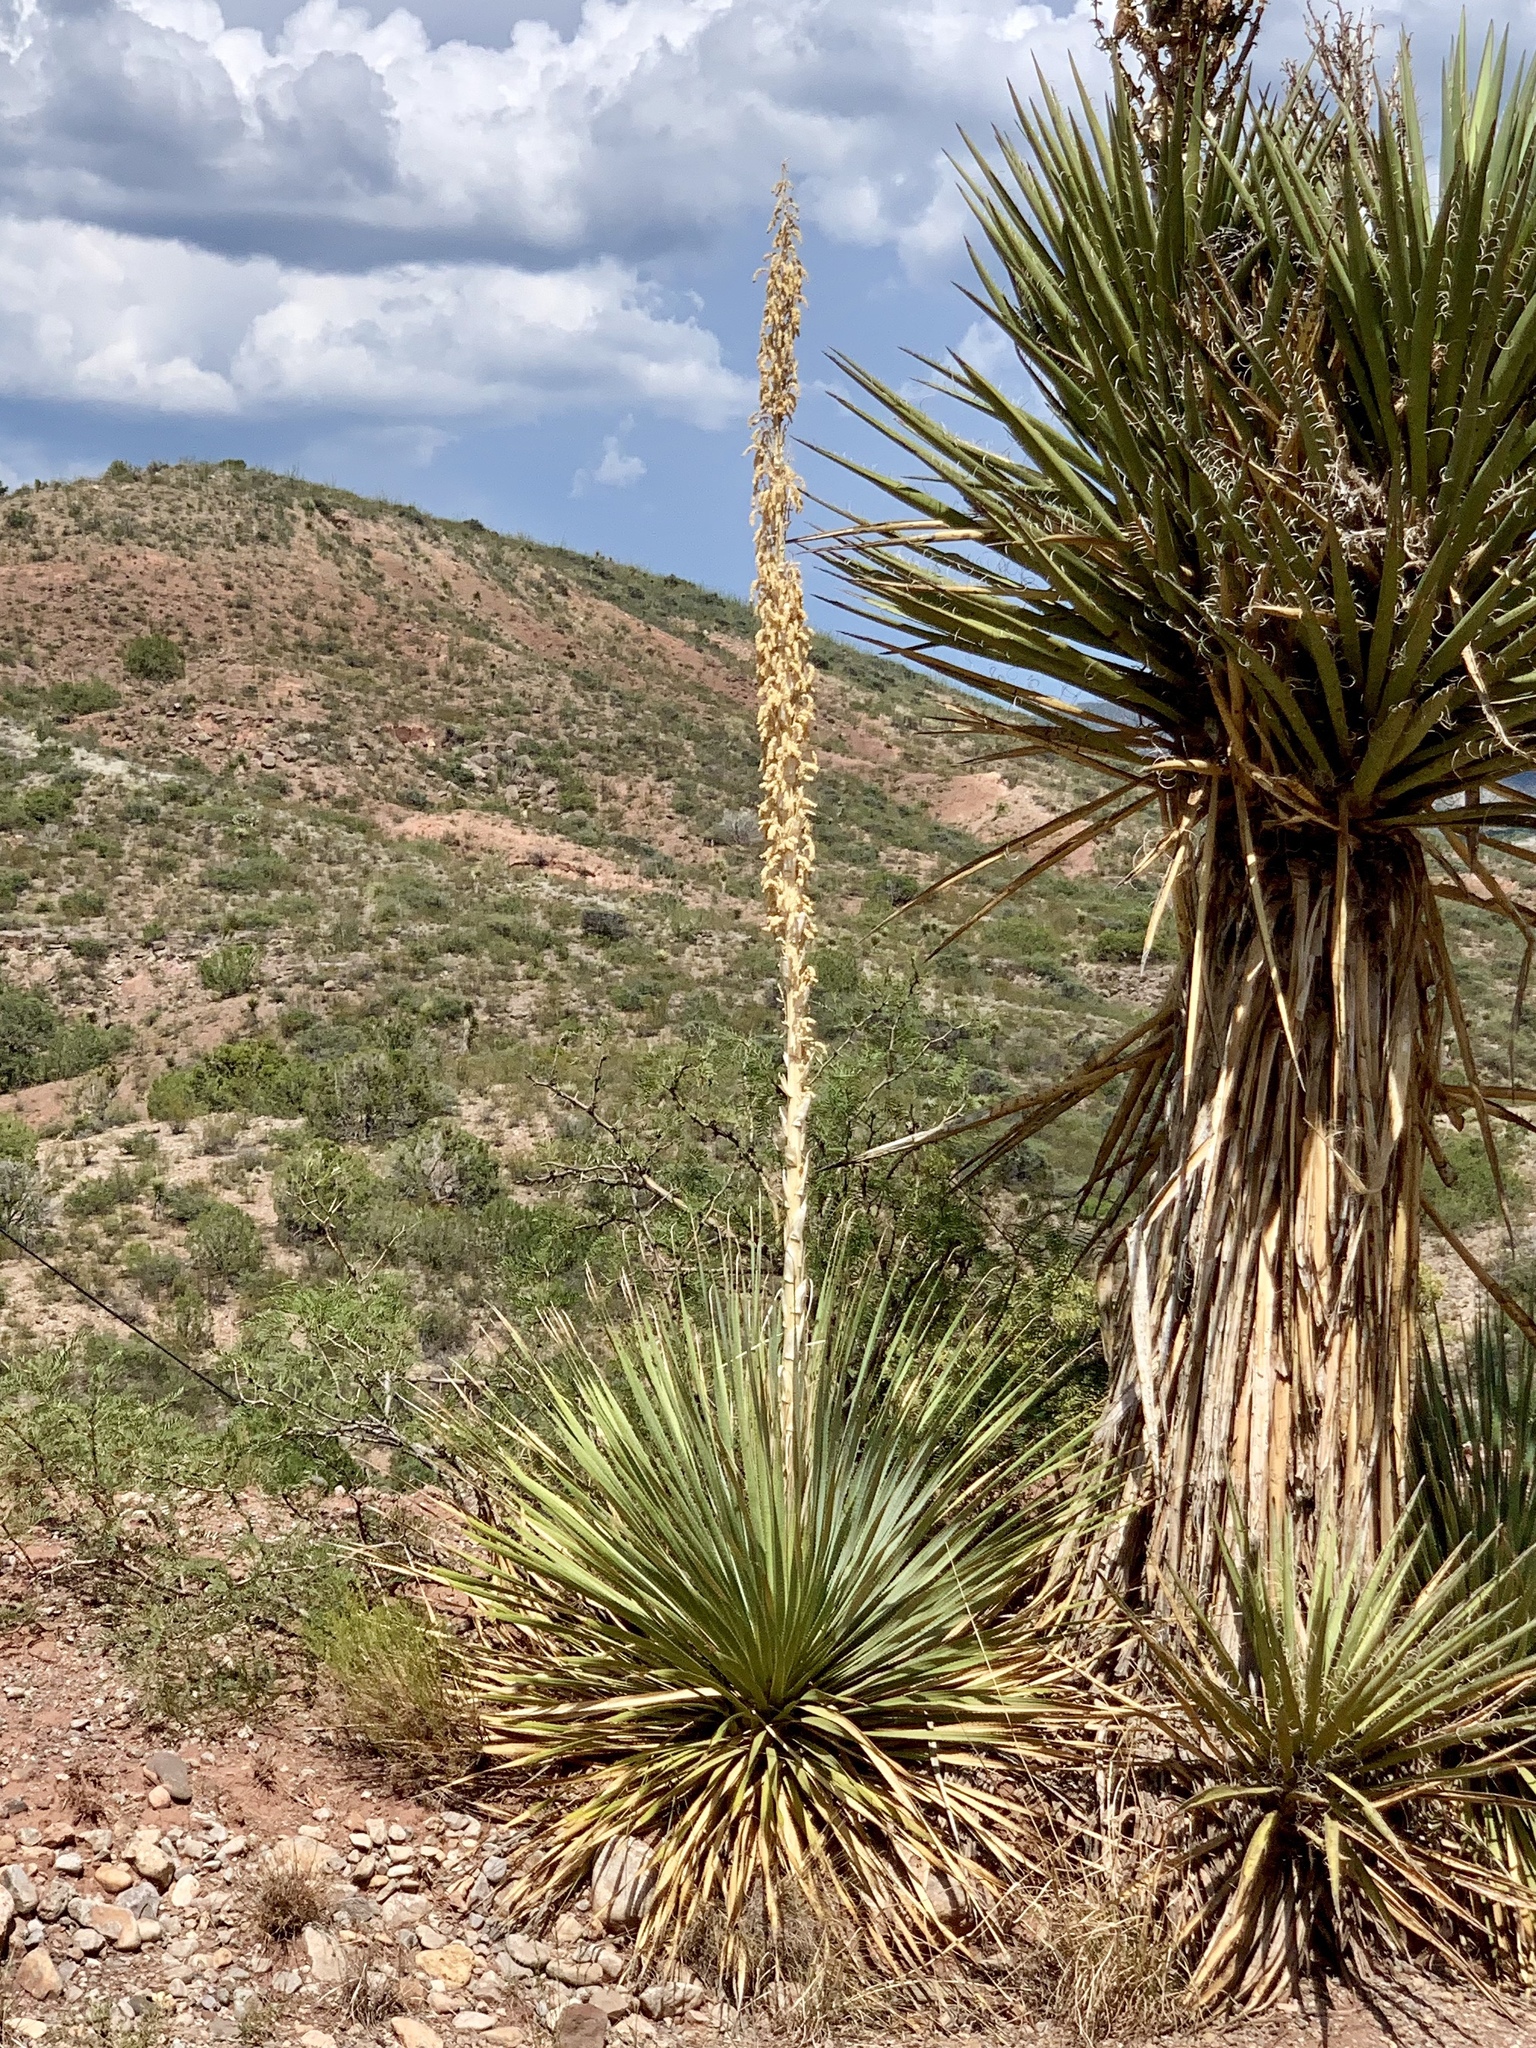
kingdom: Plantae
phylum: Tracheophyta
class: Liliopsida
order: Asparagales
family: Asparagaceae
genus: Dasylirion
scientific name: Dasylirion wheeleri
